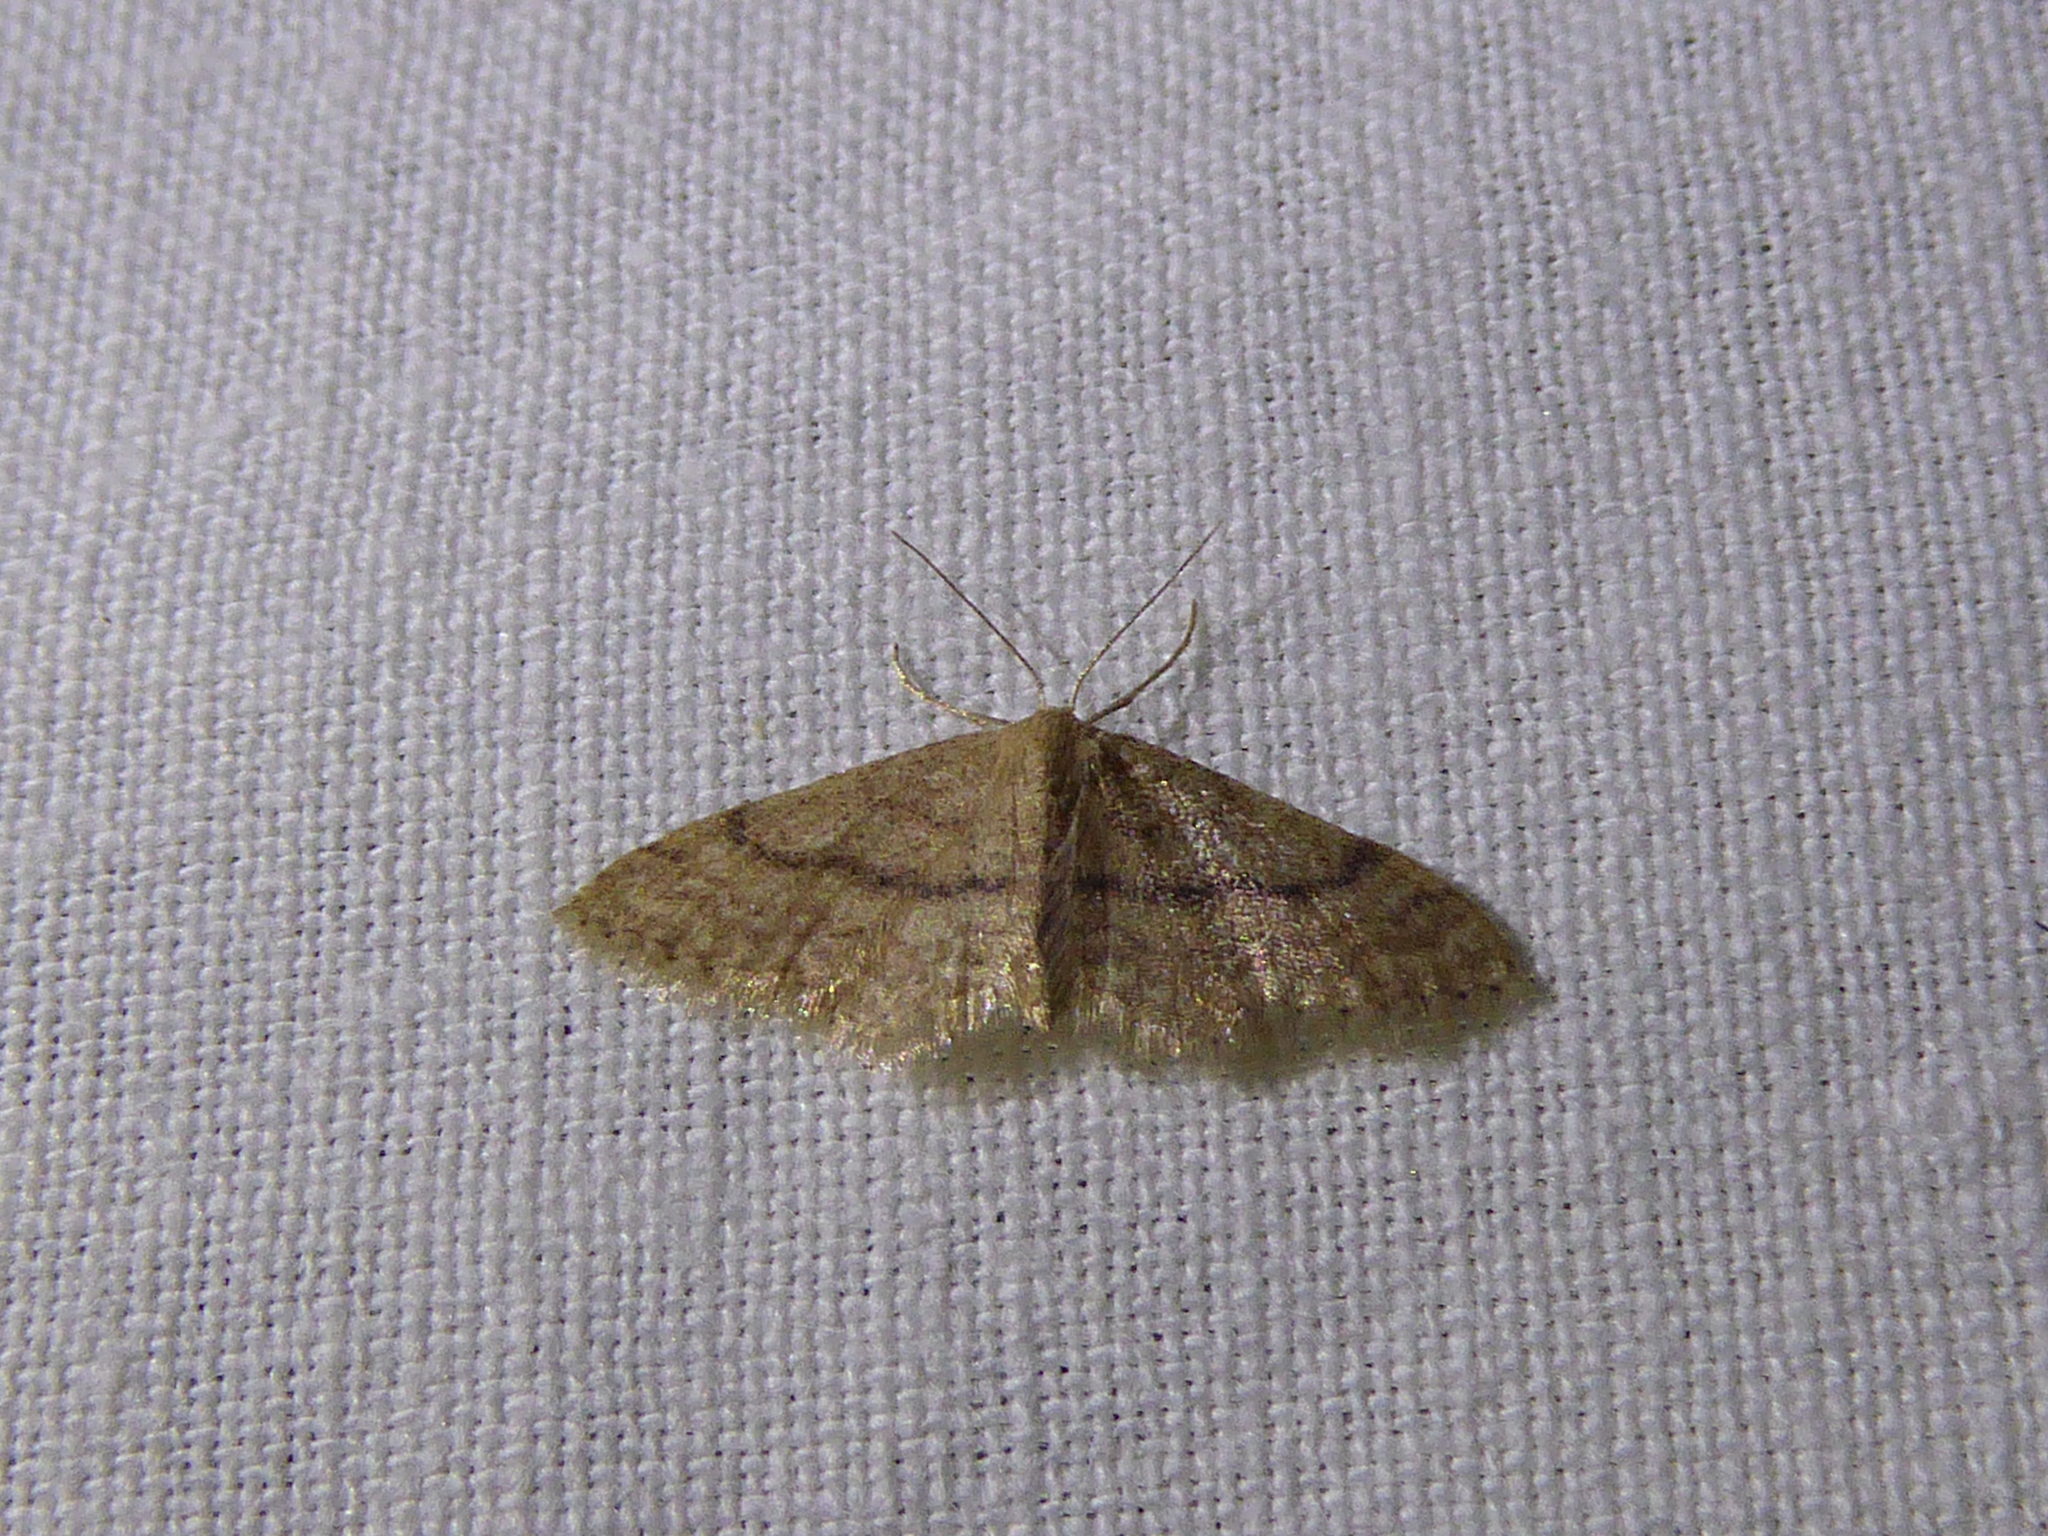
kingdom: Animalia
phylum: Arthropoda
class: Insecta
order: Lepidoptera
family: Geometridae
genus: Idaea
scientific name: Idaea charitata
